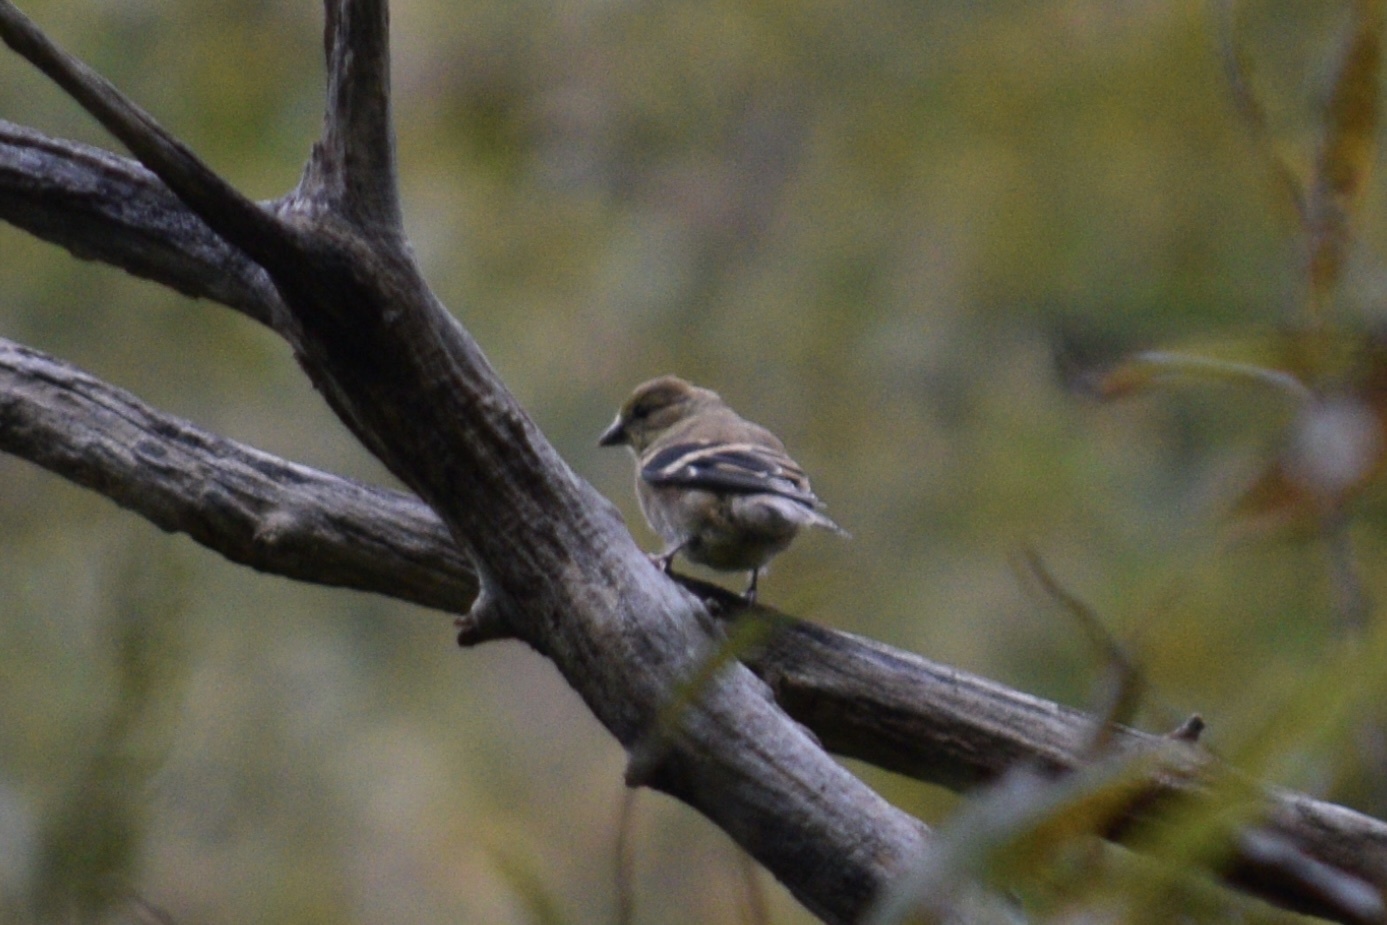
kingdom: Animalia
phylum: Chordata
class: Aves
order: Passeriformes
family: Fringillidae
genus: Spinus
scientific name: Spinus tristis
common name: American goldfinch
